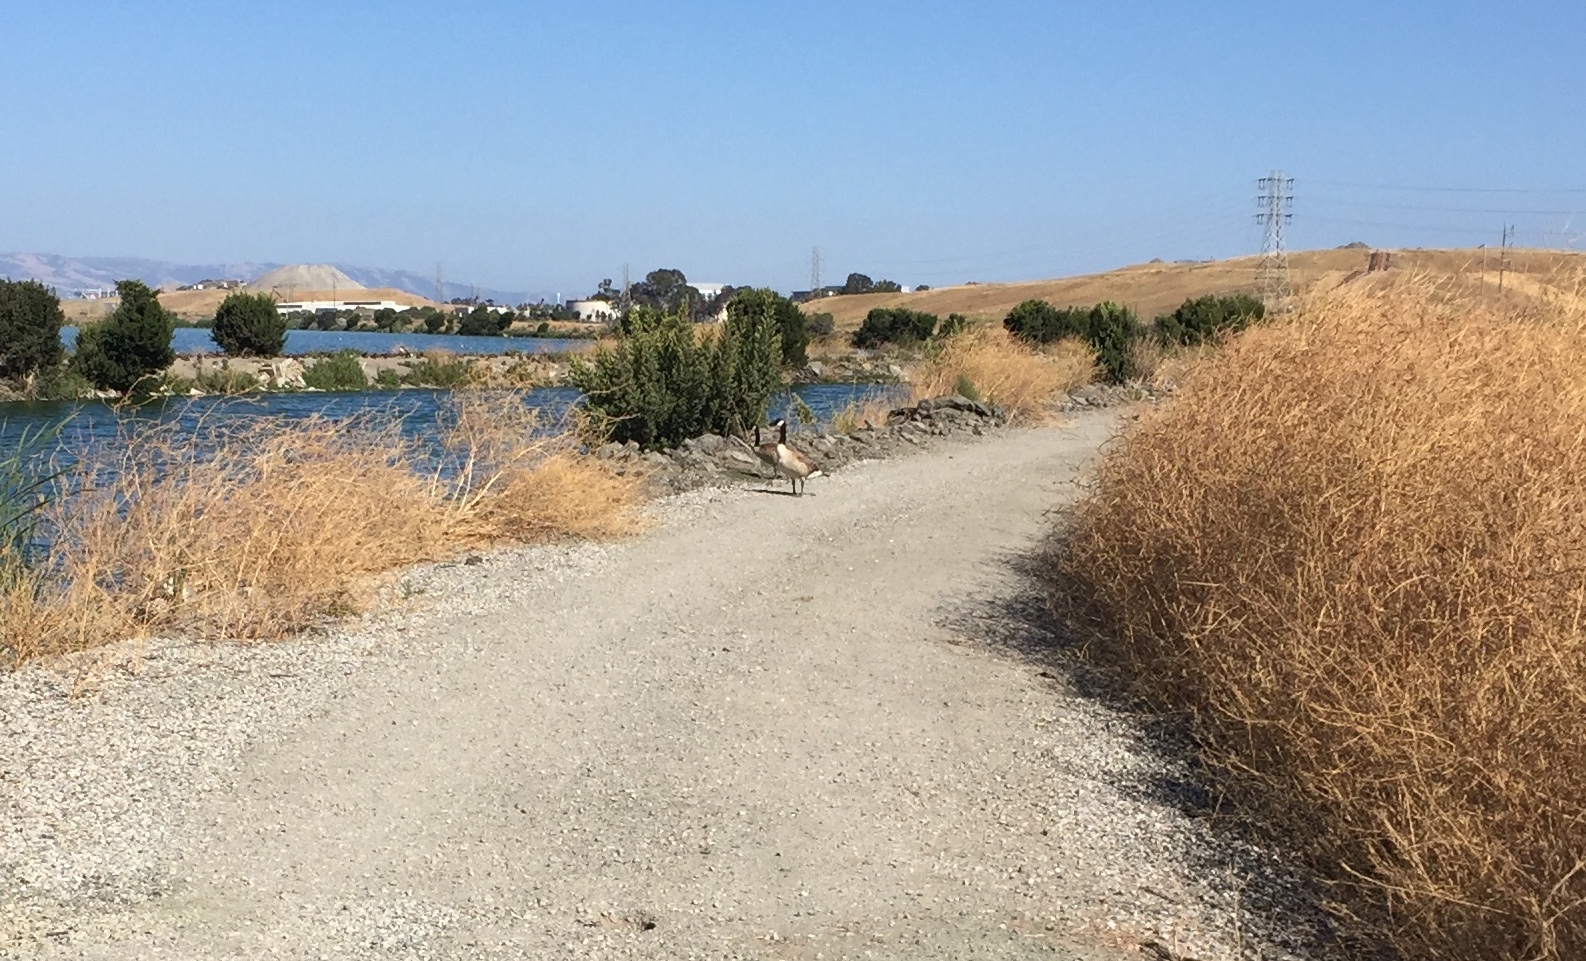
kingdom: Animalia
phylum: Chordata
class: Aves
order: Anseriformes
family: Anatidae
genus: Branta
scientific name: Branta canadensis
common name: Canada goose
